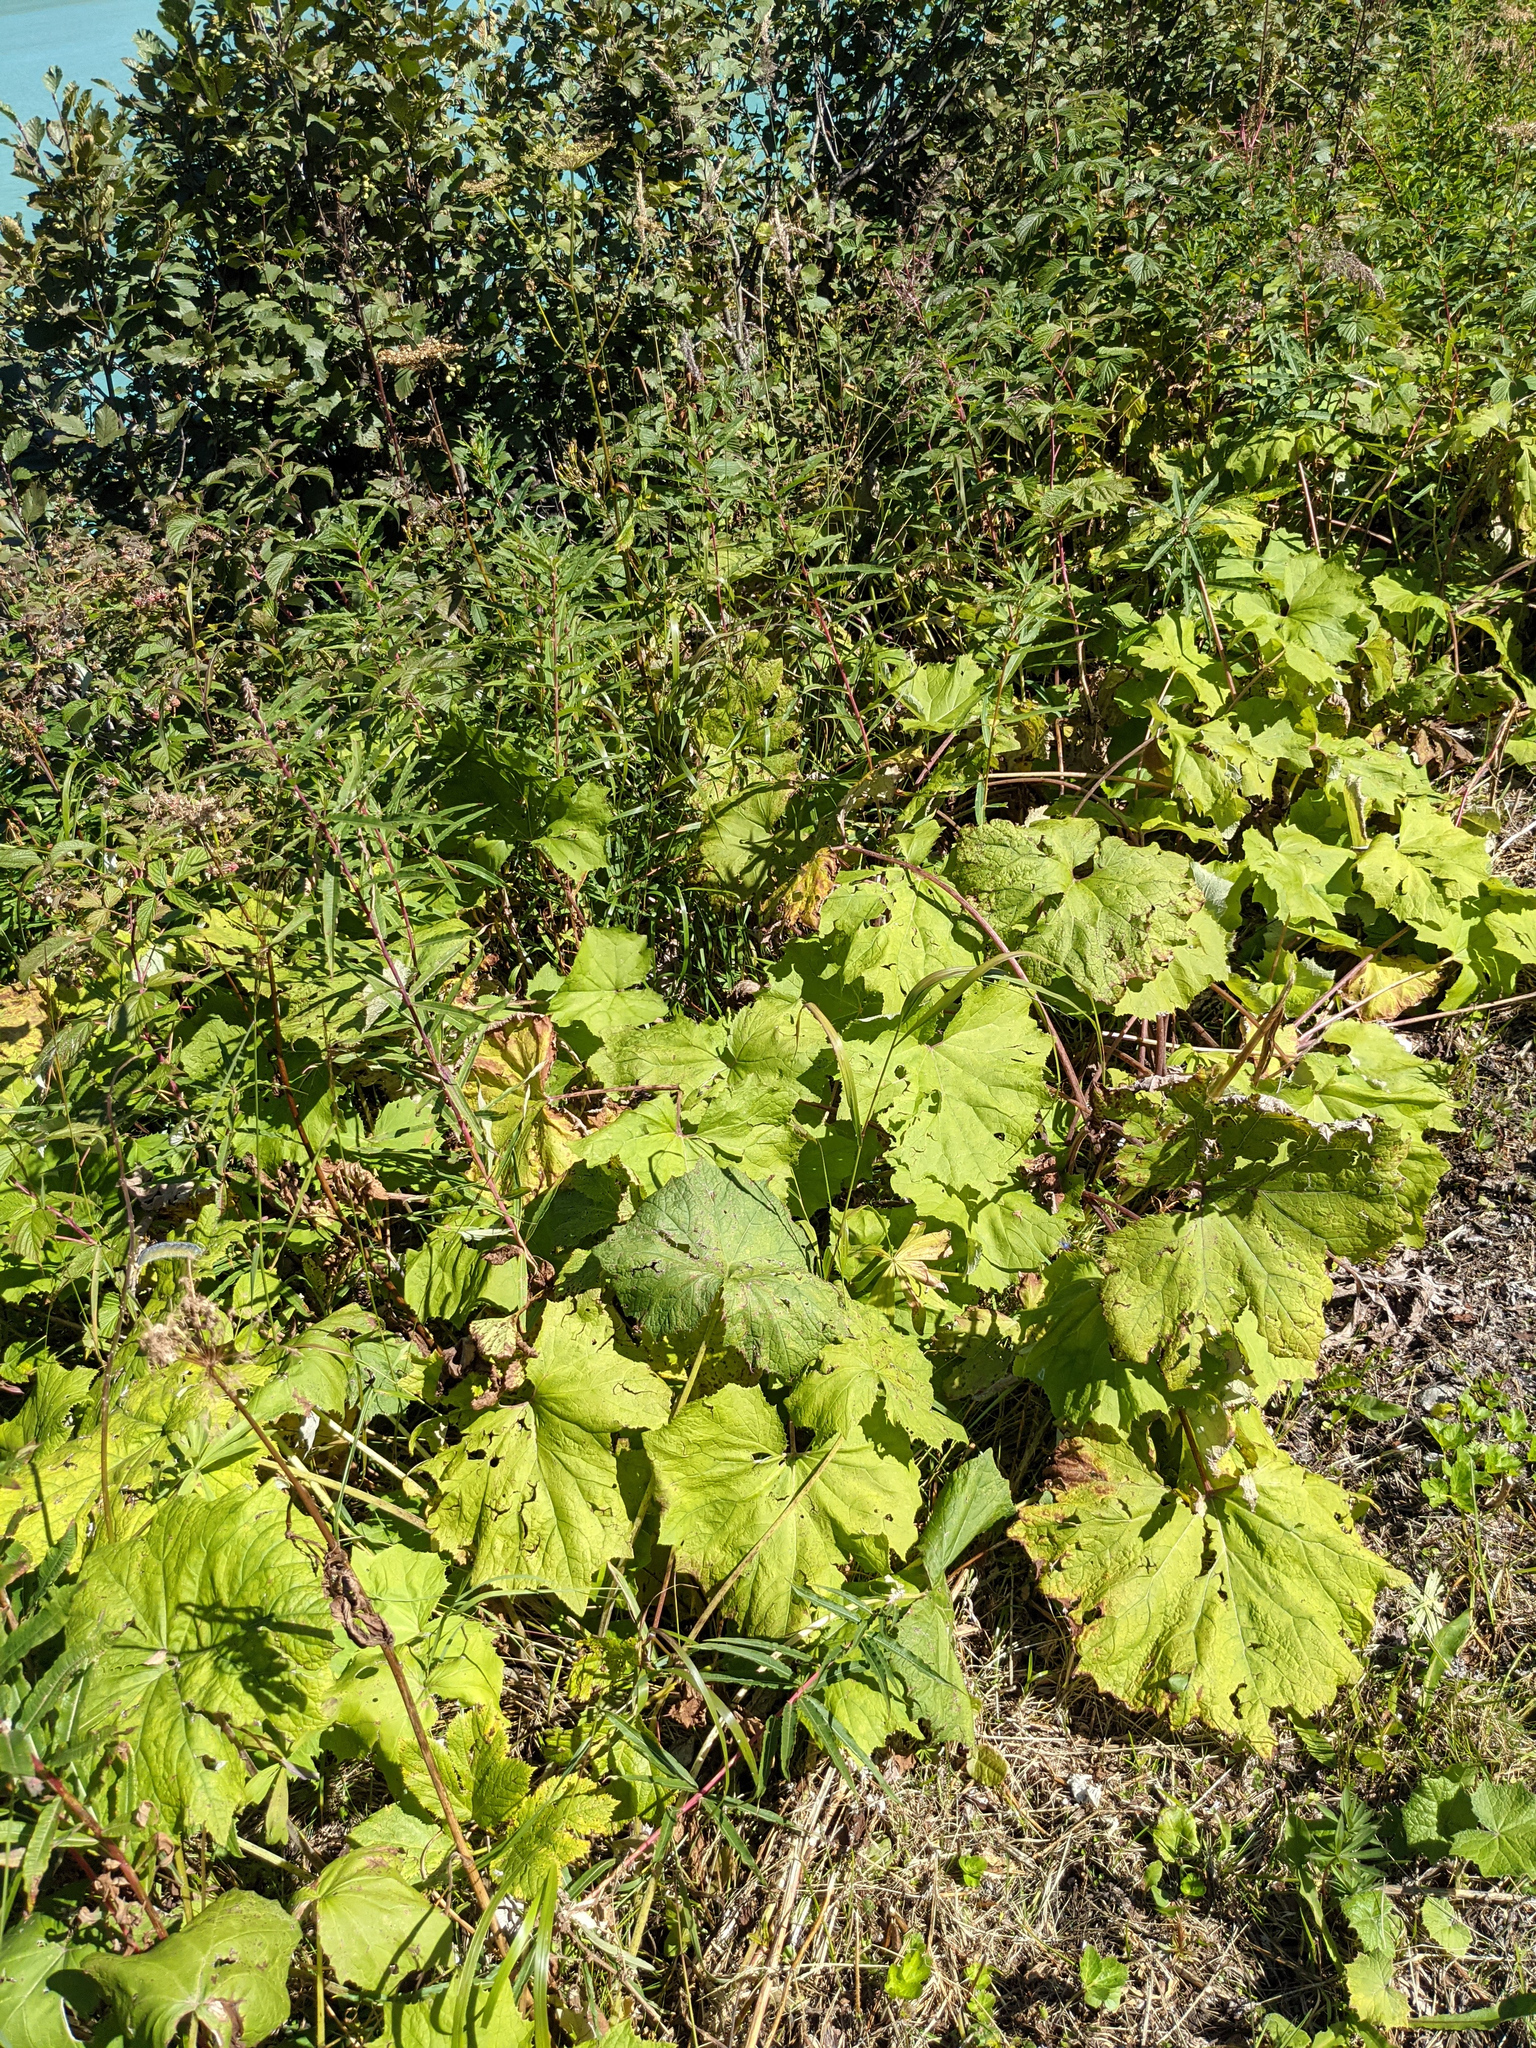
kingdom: Plantae
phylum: Tracheophyta
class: Magnoliopsida
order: Asterales
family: Asteraceae
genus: Petasites
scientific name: Petasites albus
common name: White butterbur
